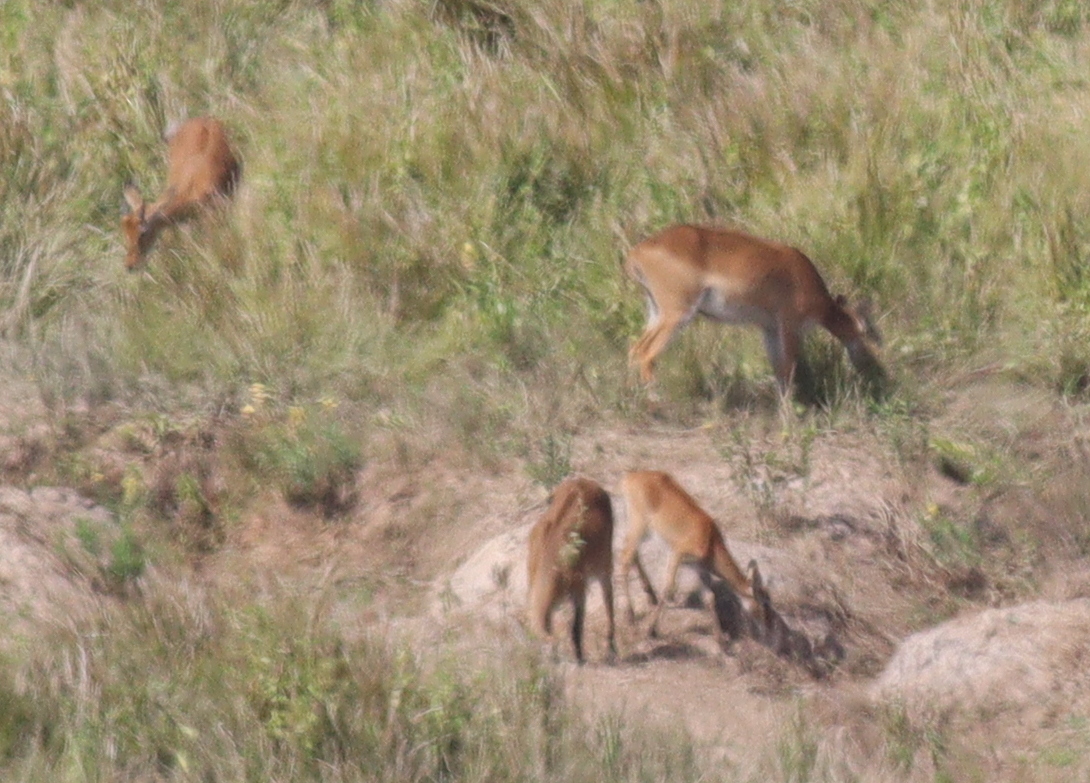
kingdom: Animalia
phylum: Chordata
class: Mammalia
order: Artiodactyla
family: Bovidae
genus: Kobus
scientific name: Kobus kob
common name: Kob
